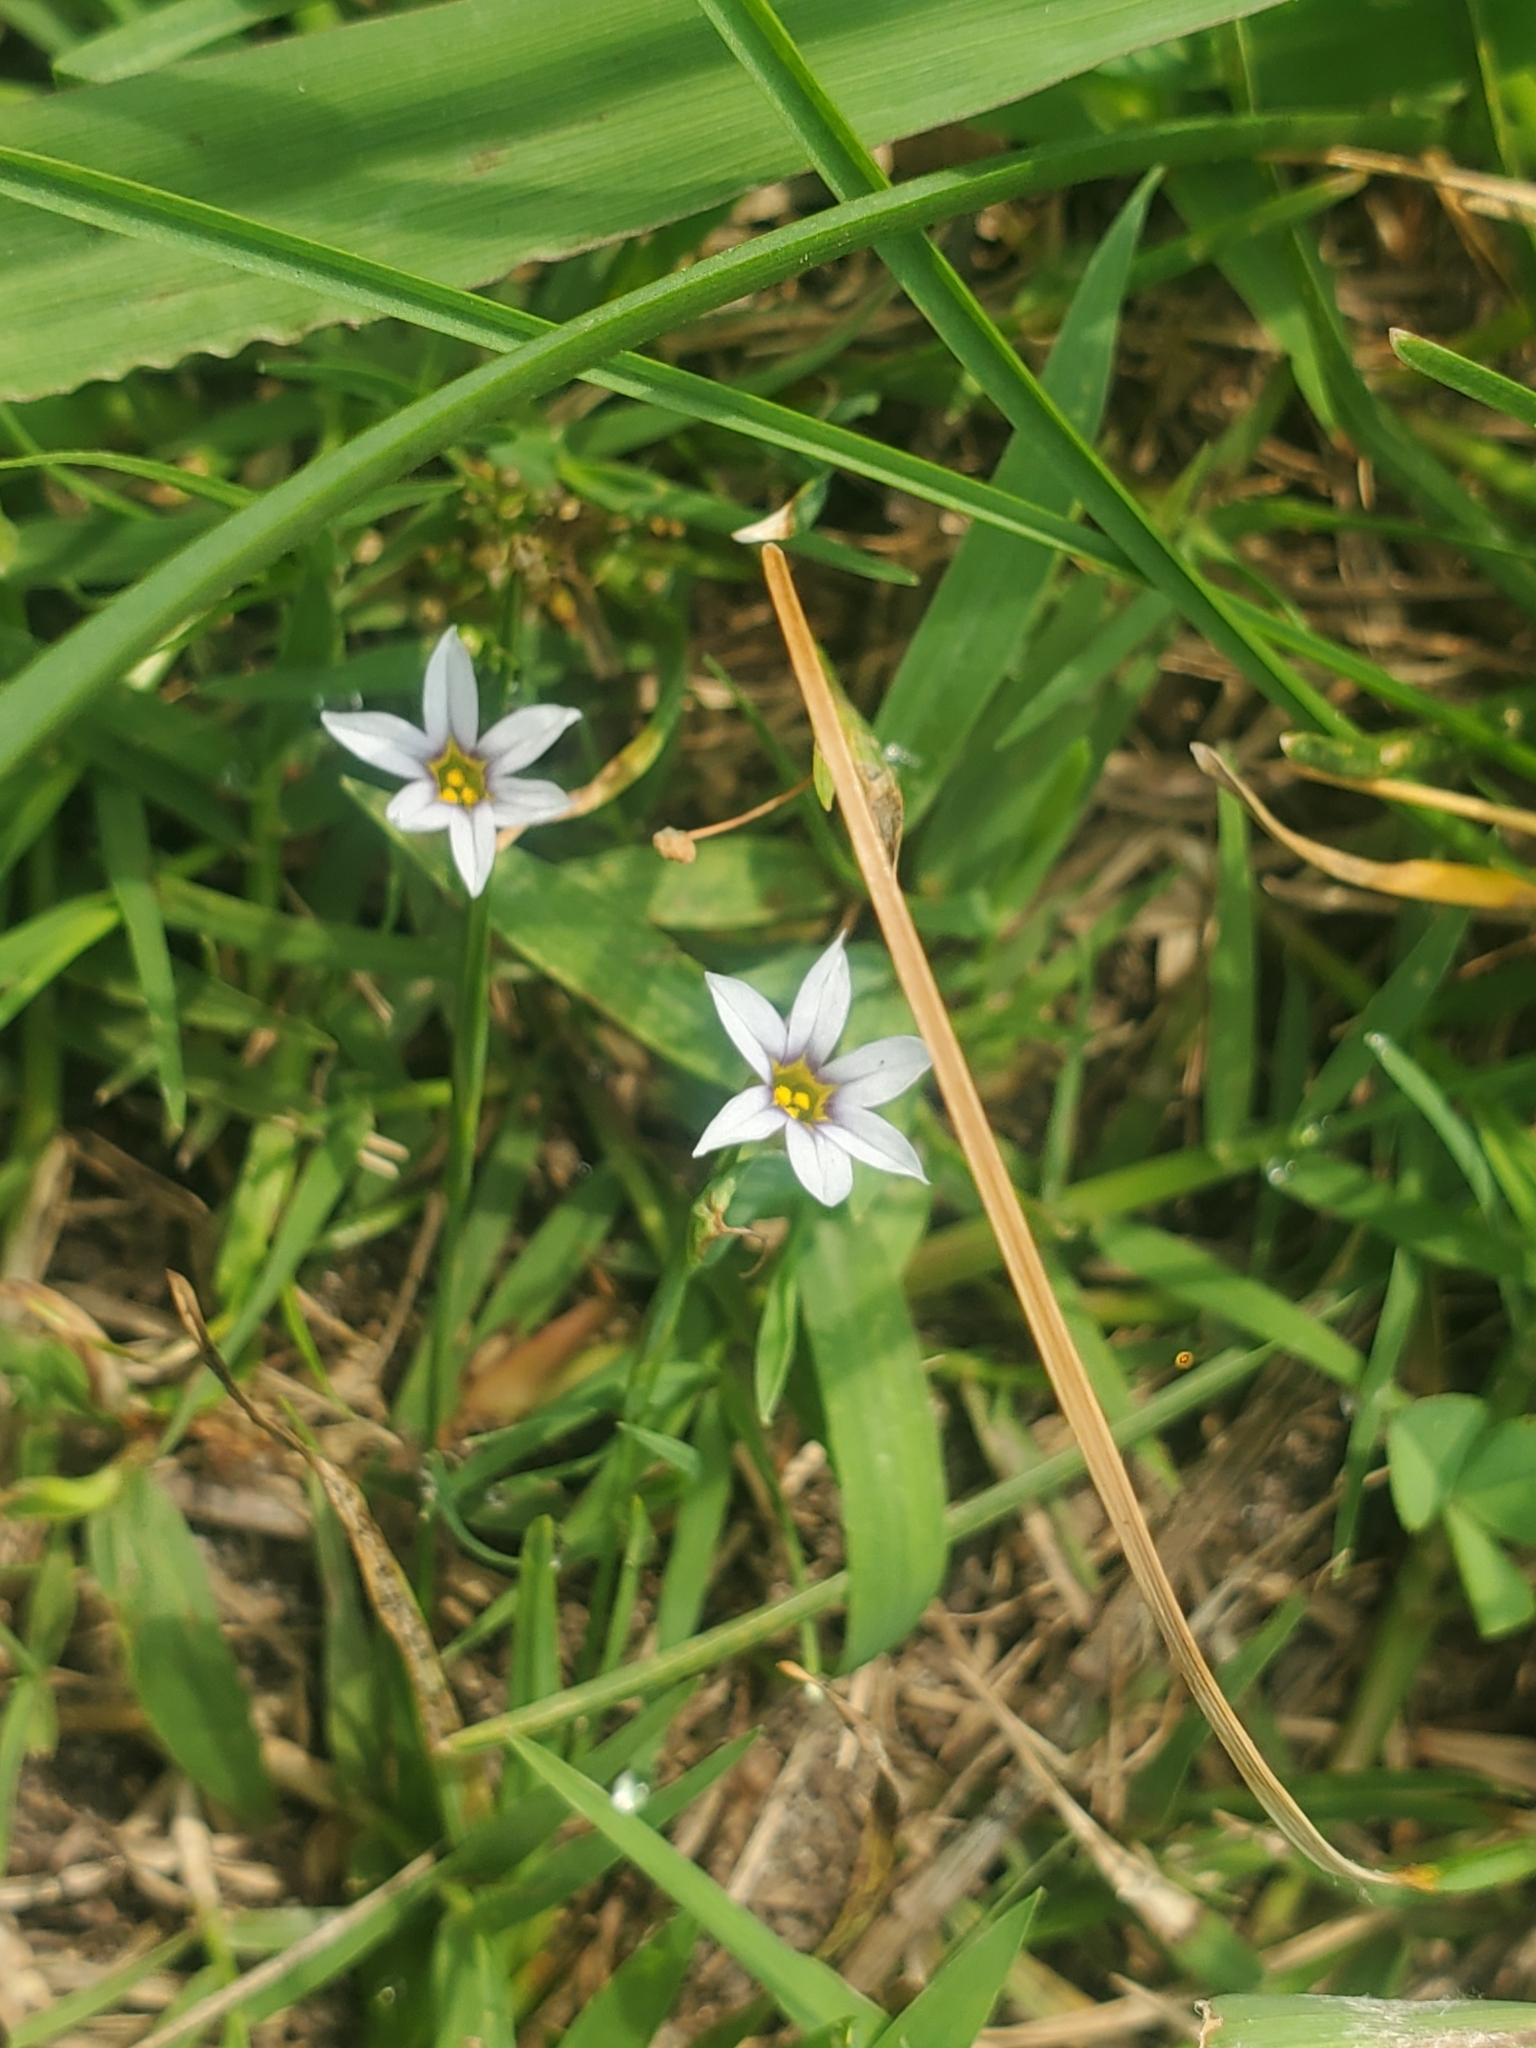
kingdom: Plantae
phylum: Tracheophyta
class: Liliopsida
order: Asparagales
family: Iridaceae
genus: Sisyrinchium
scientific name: Sisyrinchium micranthum
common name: Bermuda pigroot
